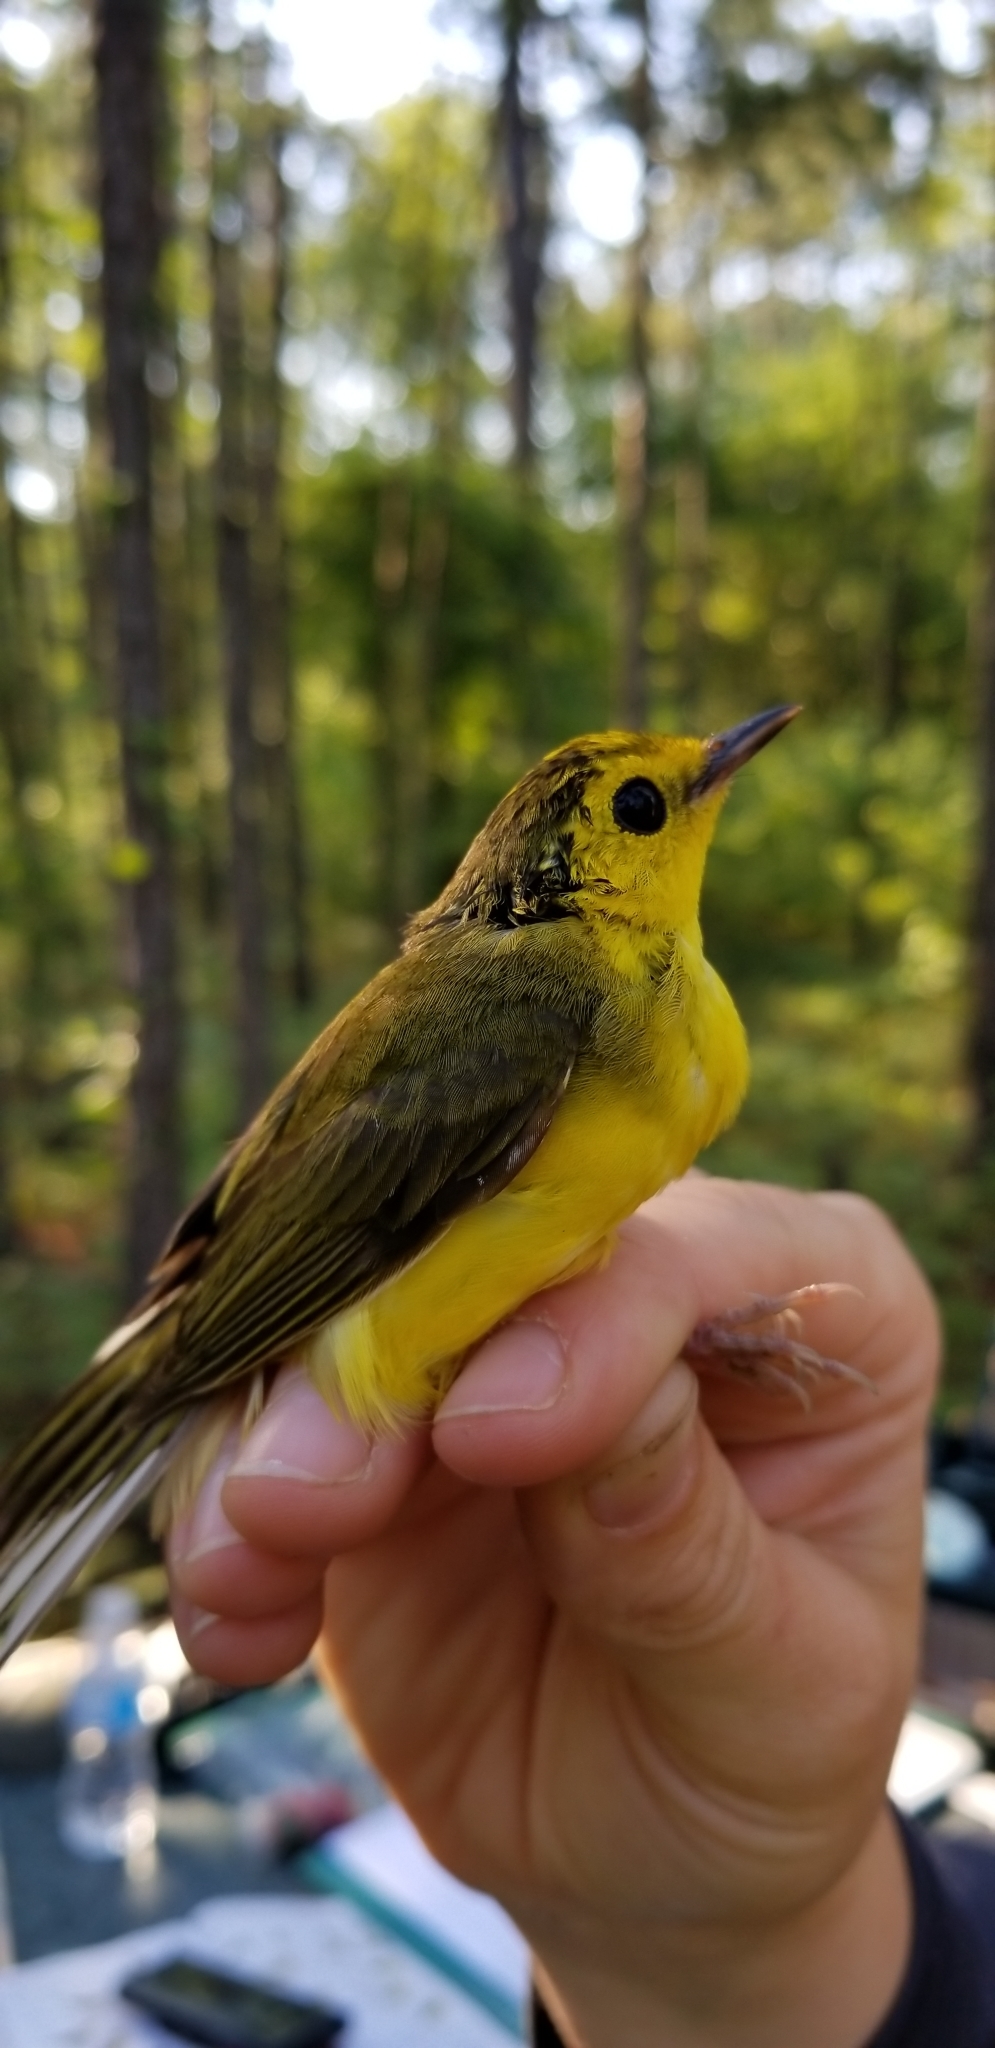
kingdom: Animalia
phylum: Chordata
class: Aves
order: Passeriformes
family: Parulidae
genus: Setophaga
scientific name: Setophaga citrina
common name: Hooded warbler
